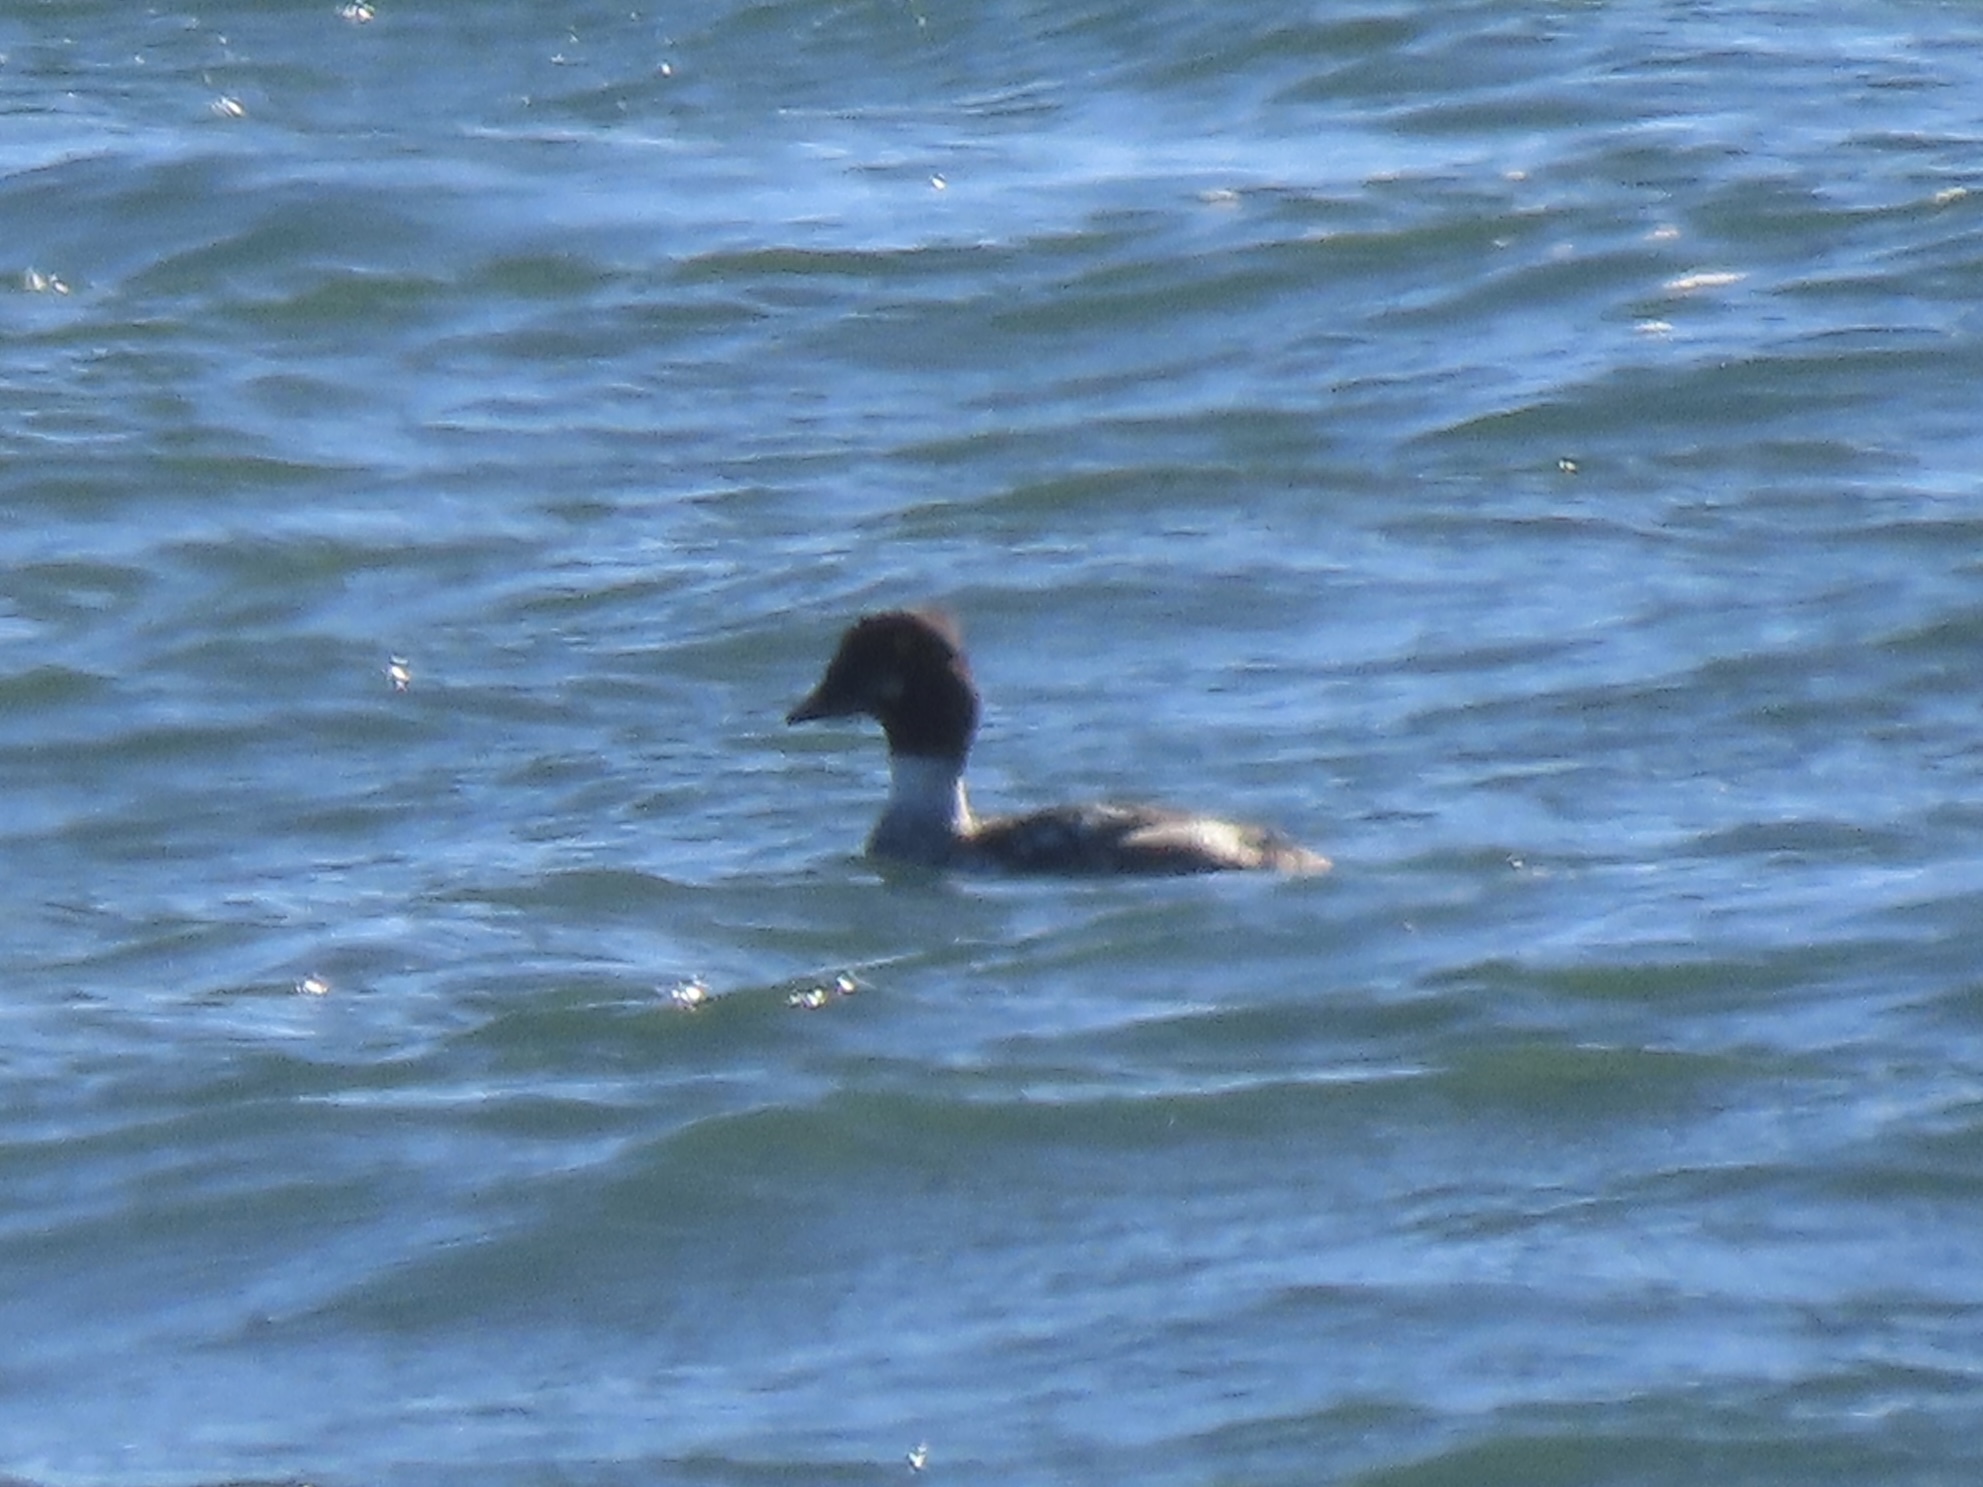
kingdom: Animalia
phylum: Chordata
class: Aves
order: Anseriformes
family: Anatidae
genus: Bucephala
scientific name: Bucephala clangula
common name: Common goldeneye
